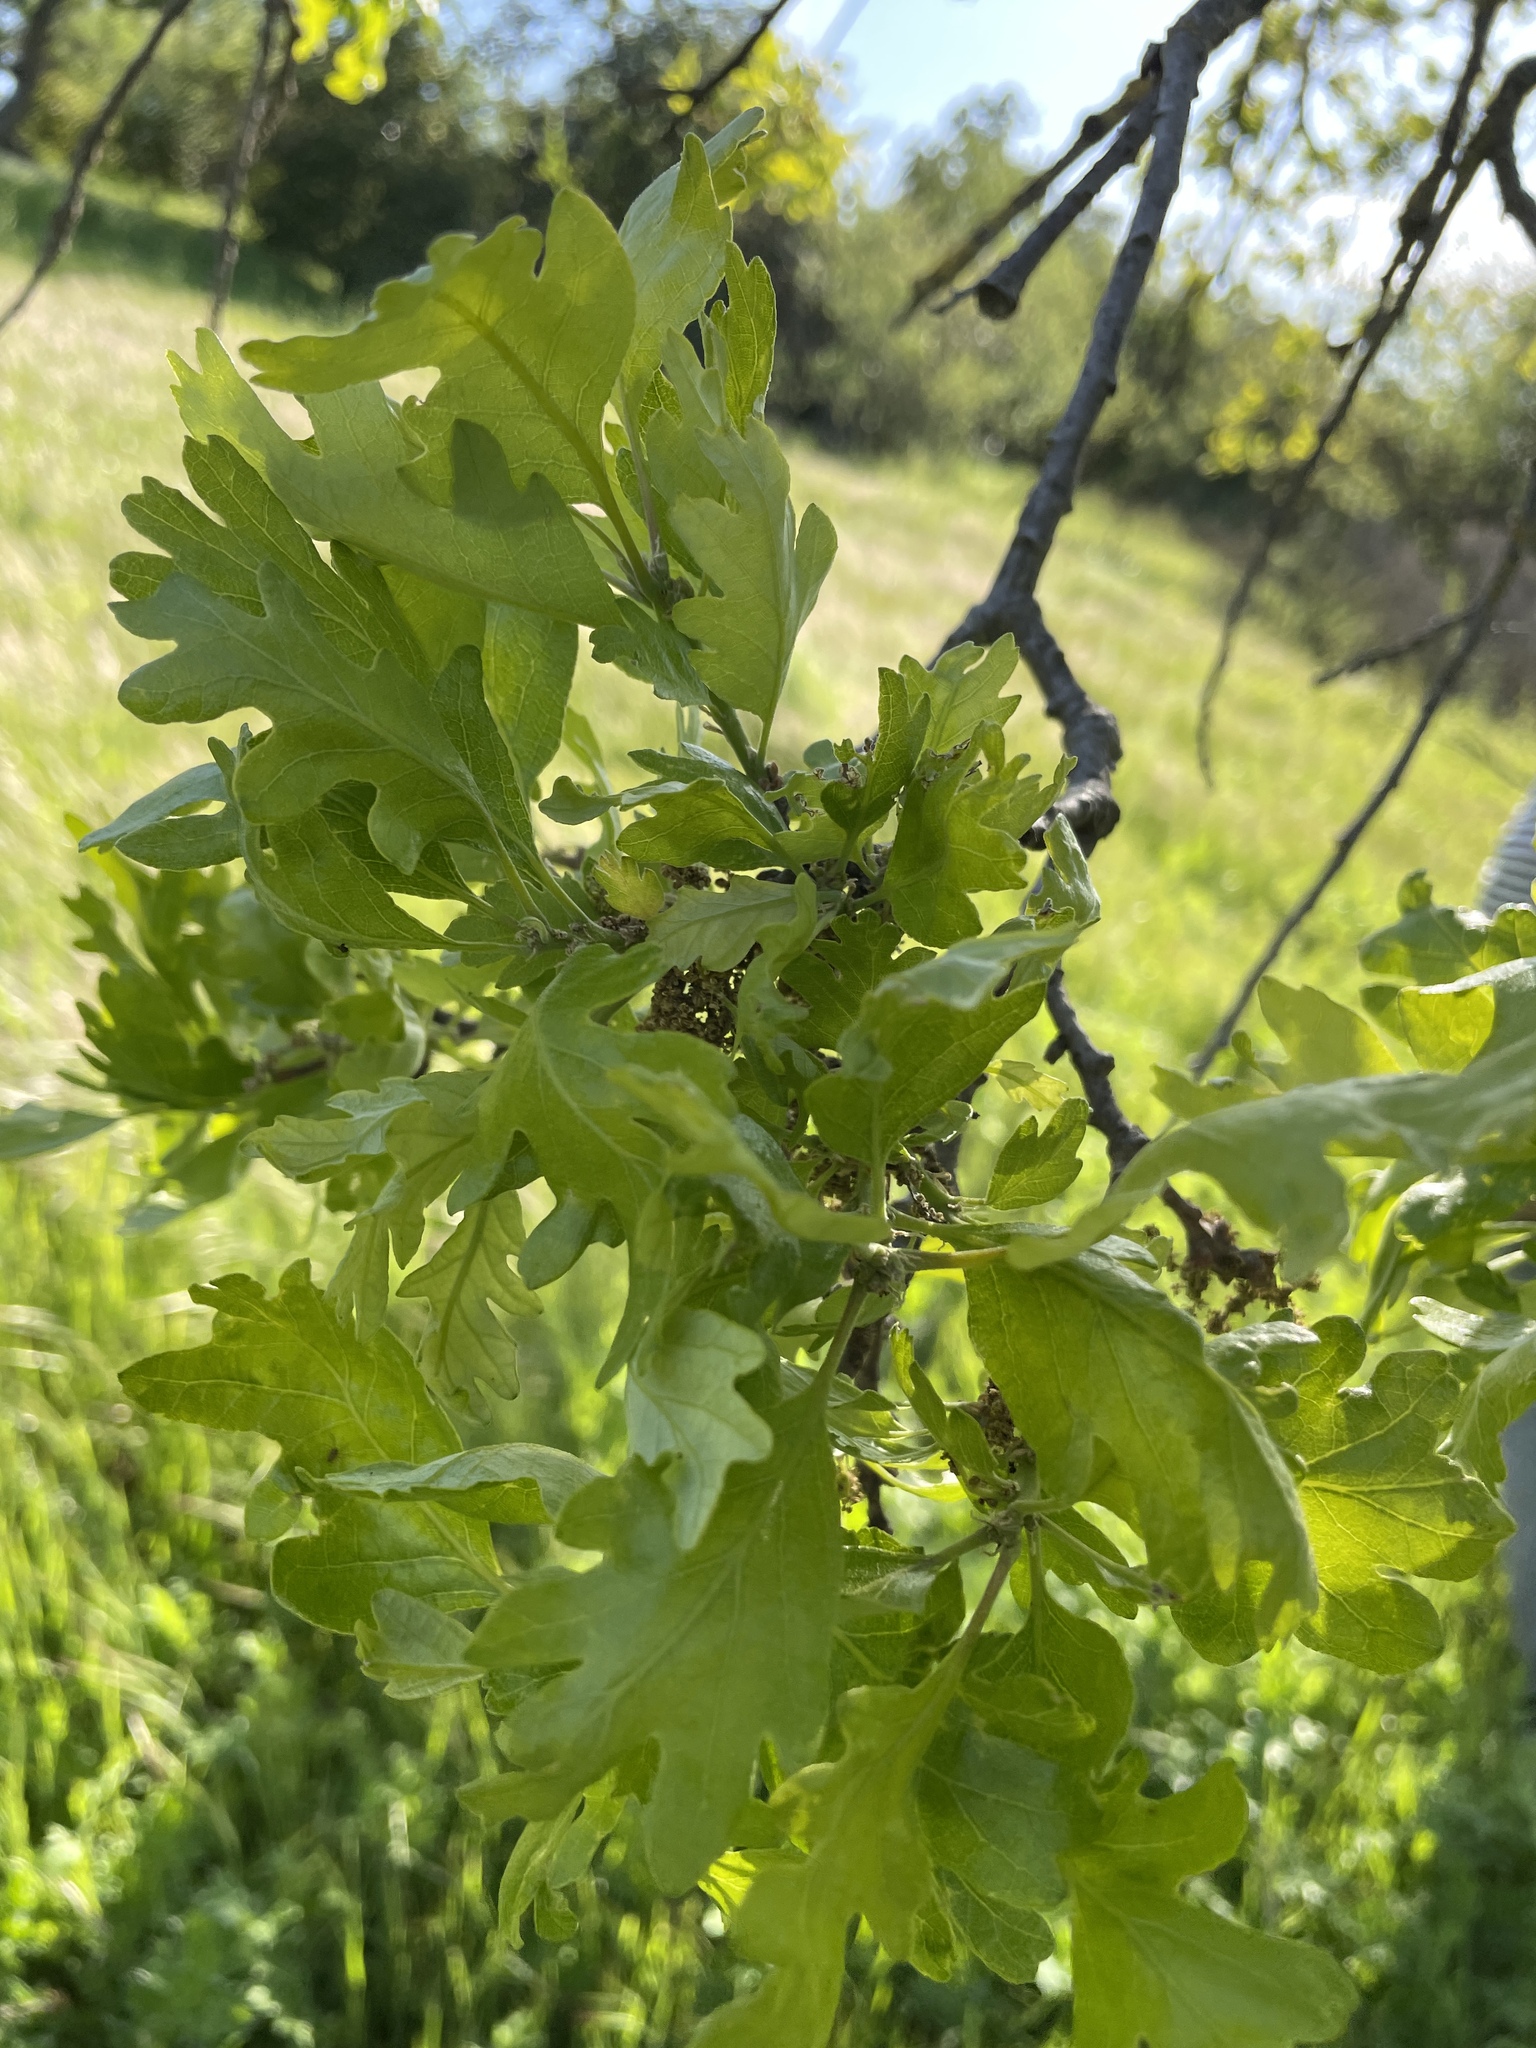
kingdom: Plantae
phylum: Tracheophyta
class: Magnoliopsida
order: Fagales
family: Fagaceae
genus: Quercus
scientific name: Quercus lobata
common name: Valley oak
